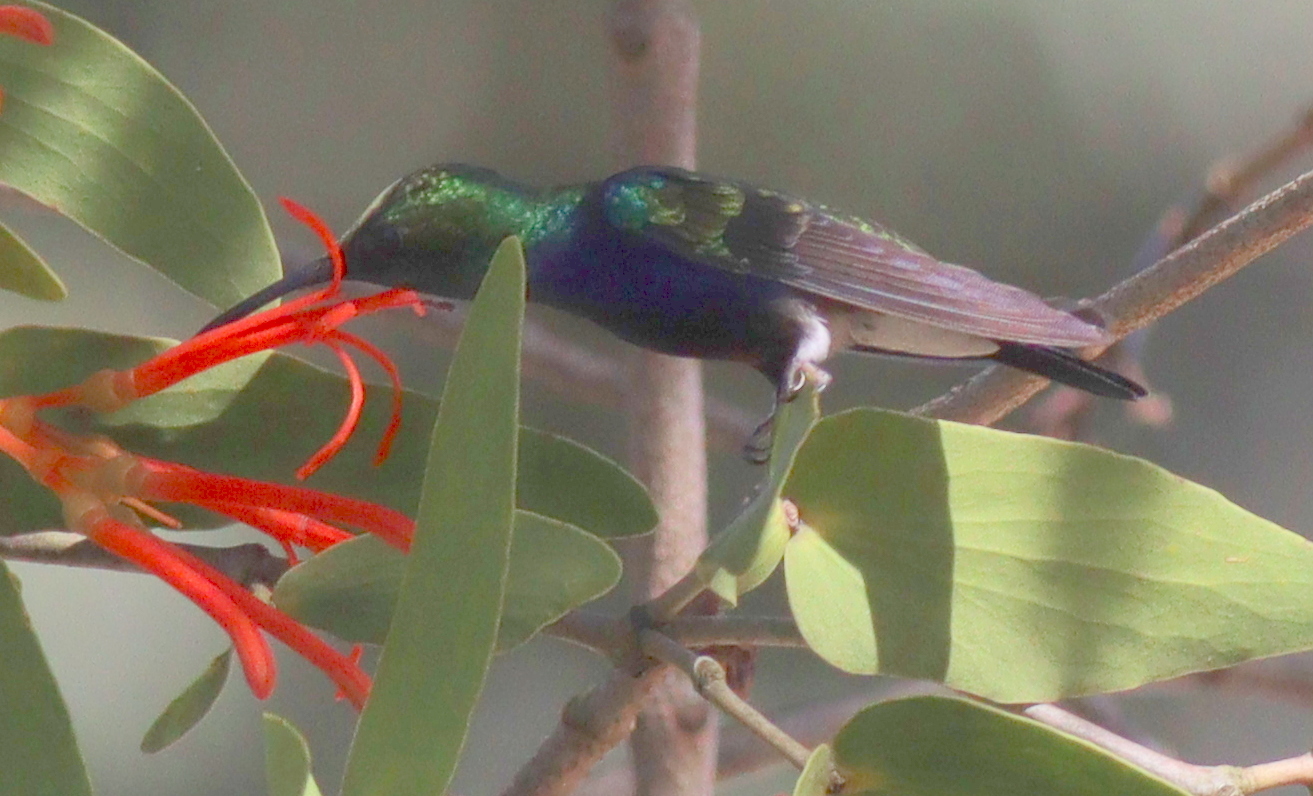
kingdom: Animalia
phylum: Chordata
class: Aves
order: Apodiformes
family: Trochilidae
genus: Thalurania
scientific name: Thalurania furcata
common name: Fork-tailed woodnymph
